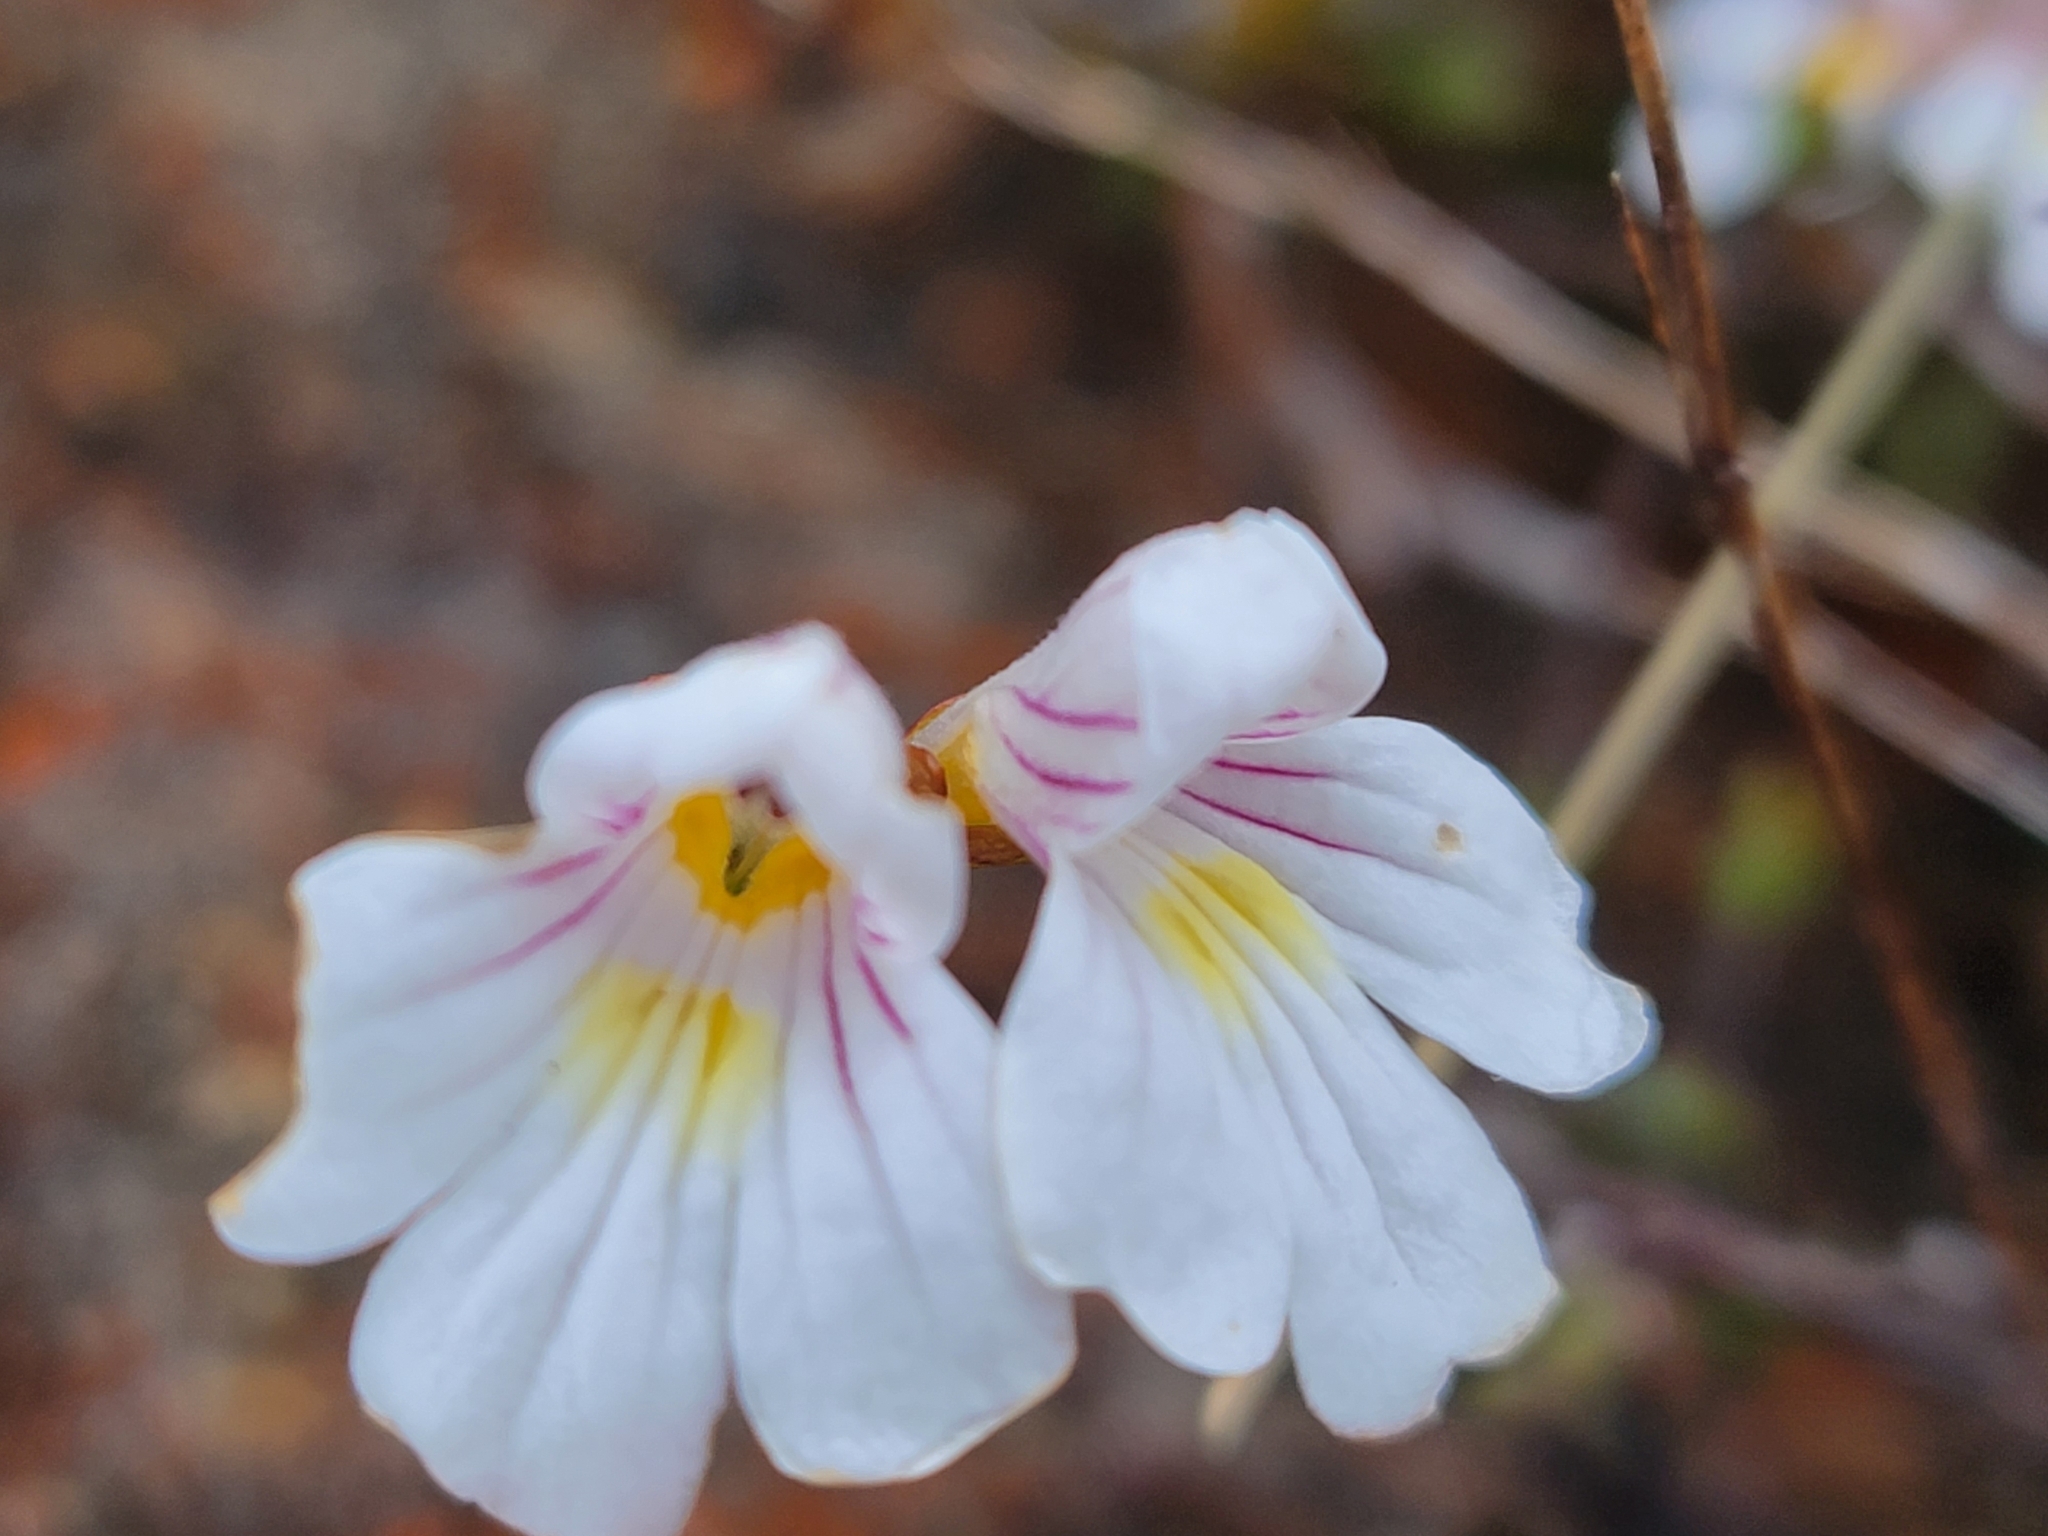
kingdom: Plantae
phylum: Tracheophyta
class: Magnoliopsida
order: Lamiales
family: Orobanchaceae
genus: Euphrasia
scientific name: Euphrasia cuneata
